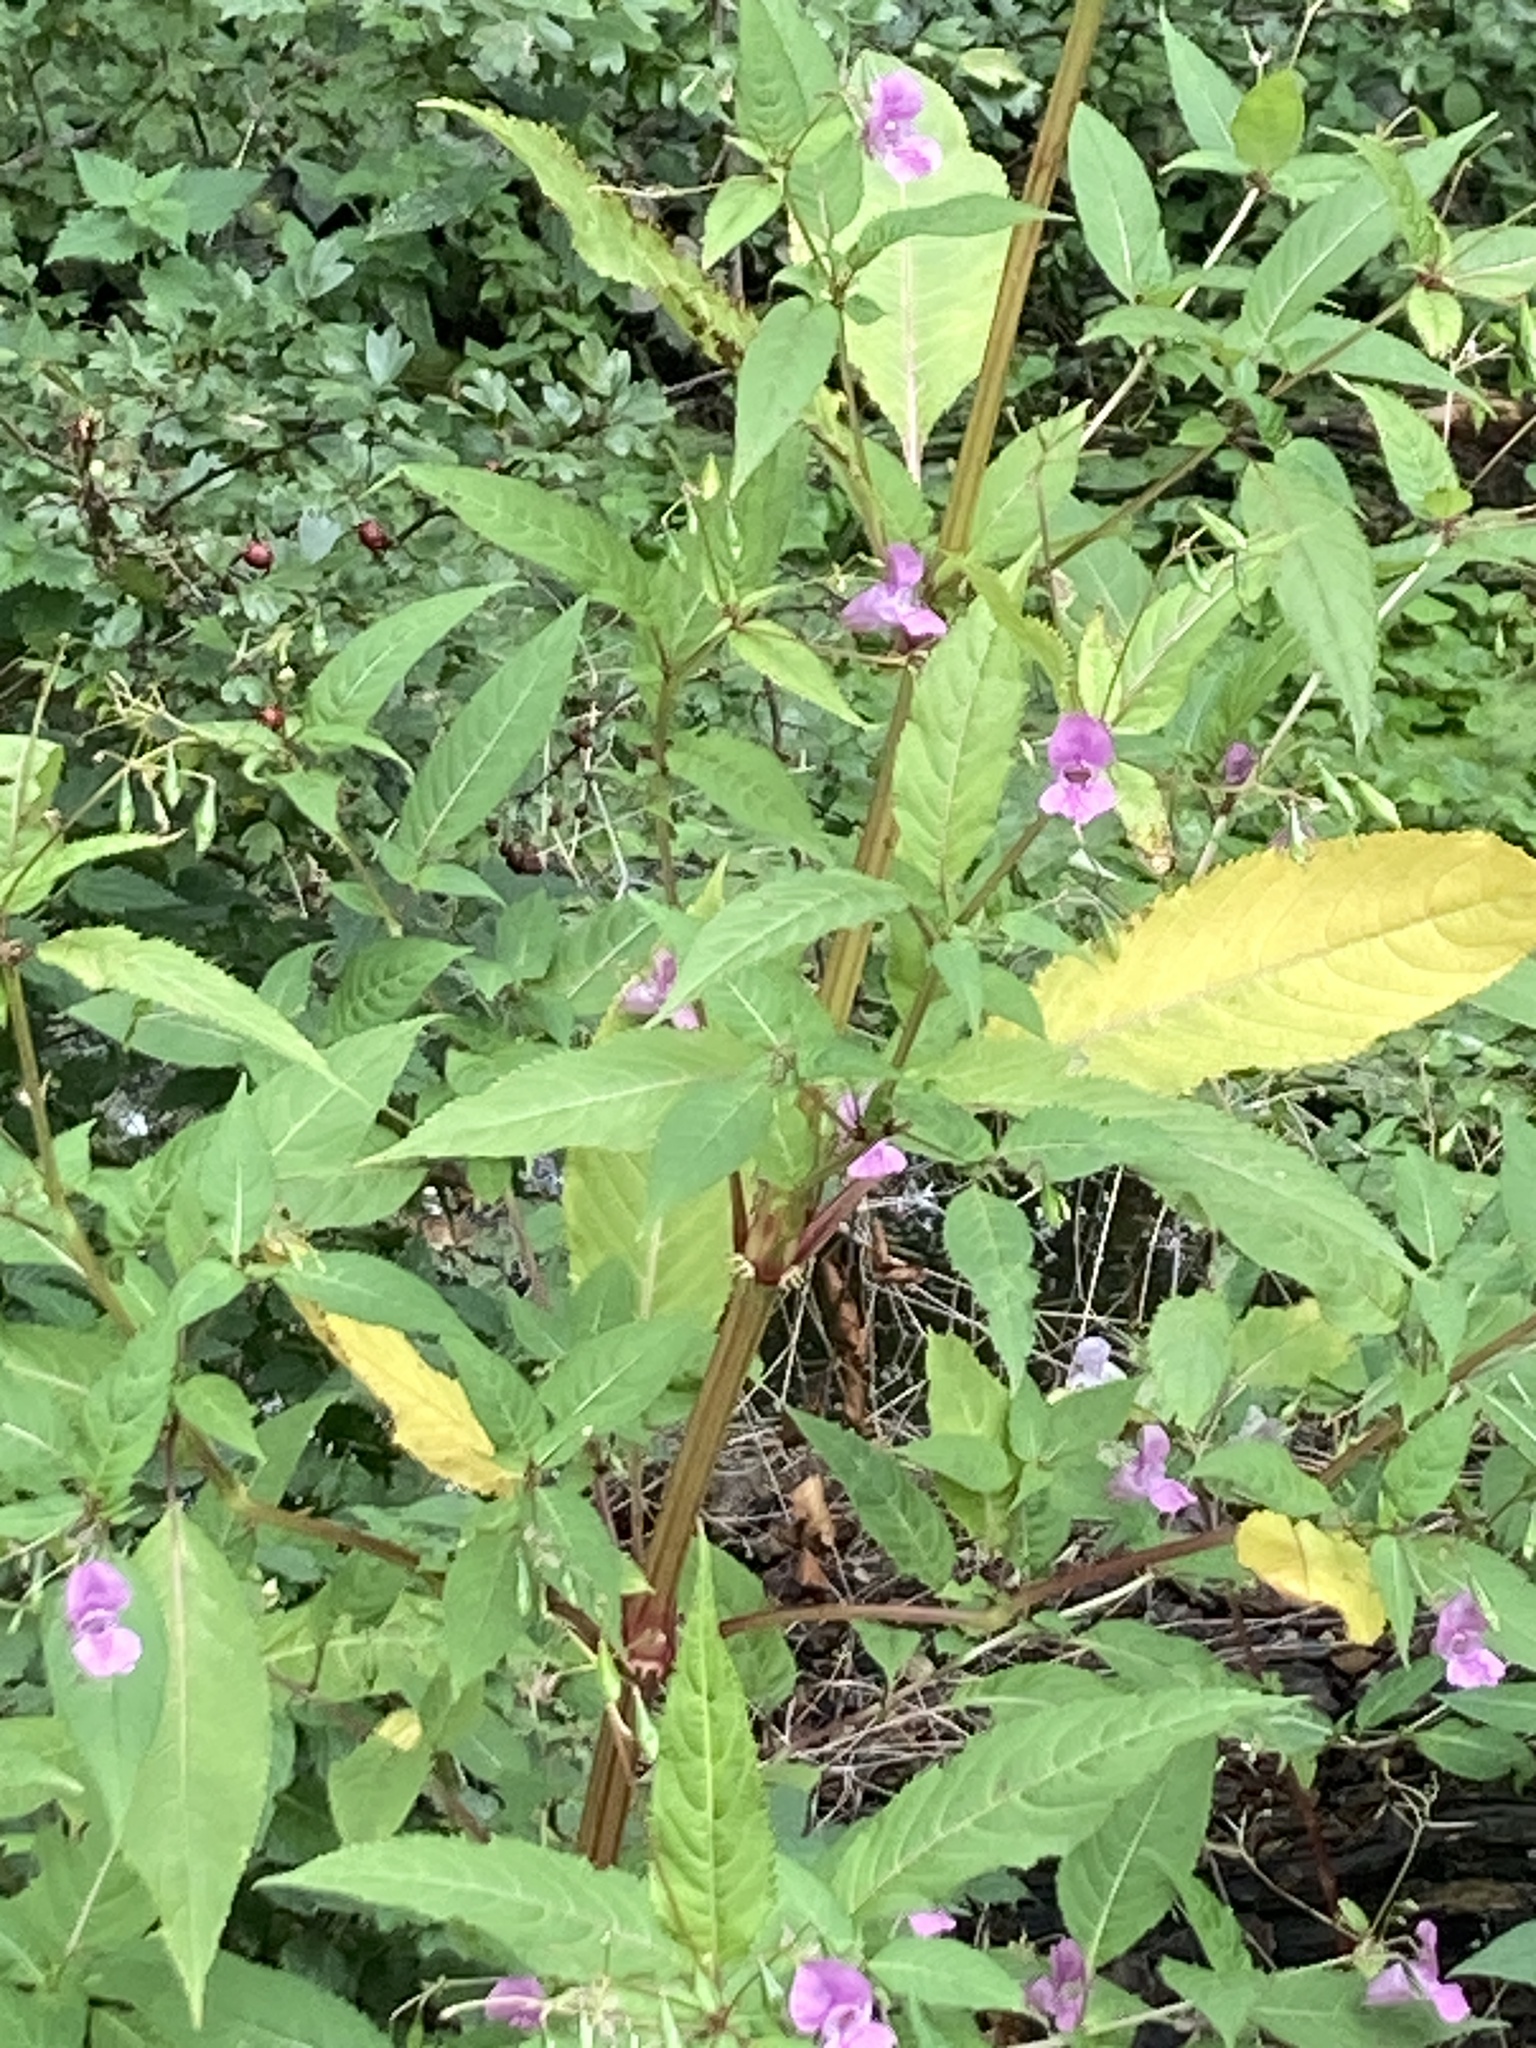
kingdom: Plantae
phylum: Tracheophyta
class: Magnoliopsida
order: Ericales
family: Balsaminaceae
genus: Impatiens
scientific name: Impatiens glandulifera
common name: Himalayan balsam
